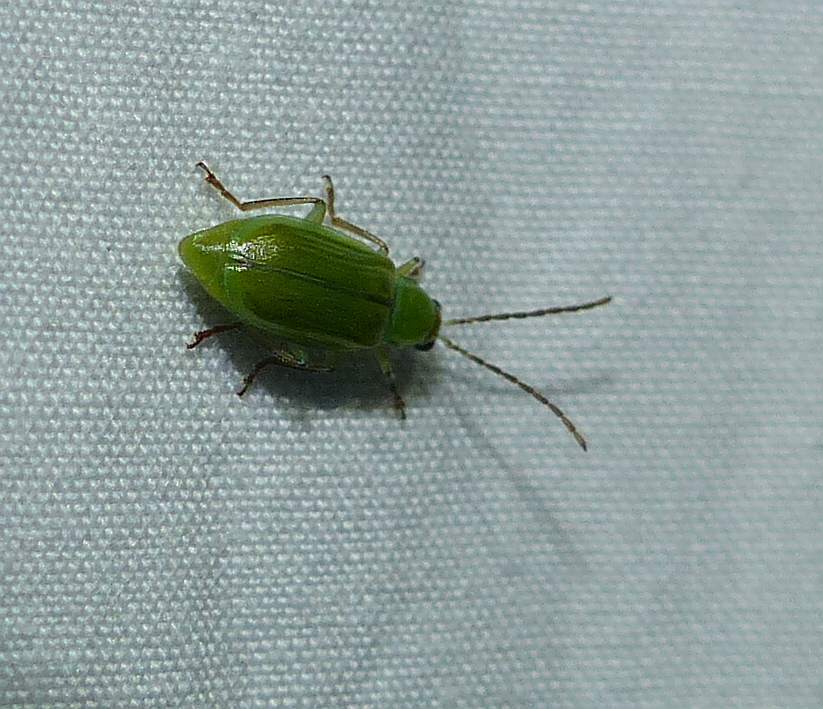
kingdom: Animalia
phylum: Arthropoda
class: Insecta
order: Coleoptera
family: Chrysomelidae
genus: Diabrotica
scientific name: Diabrotica barberi
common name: Northern corn rootworm
